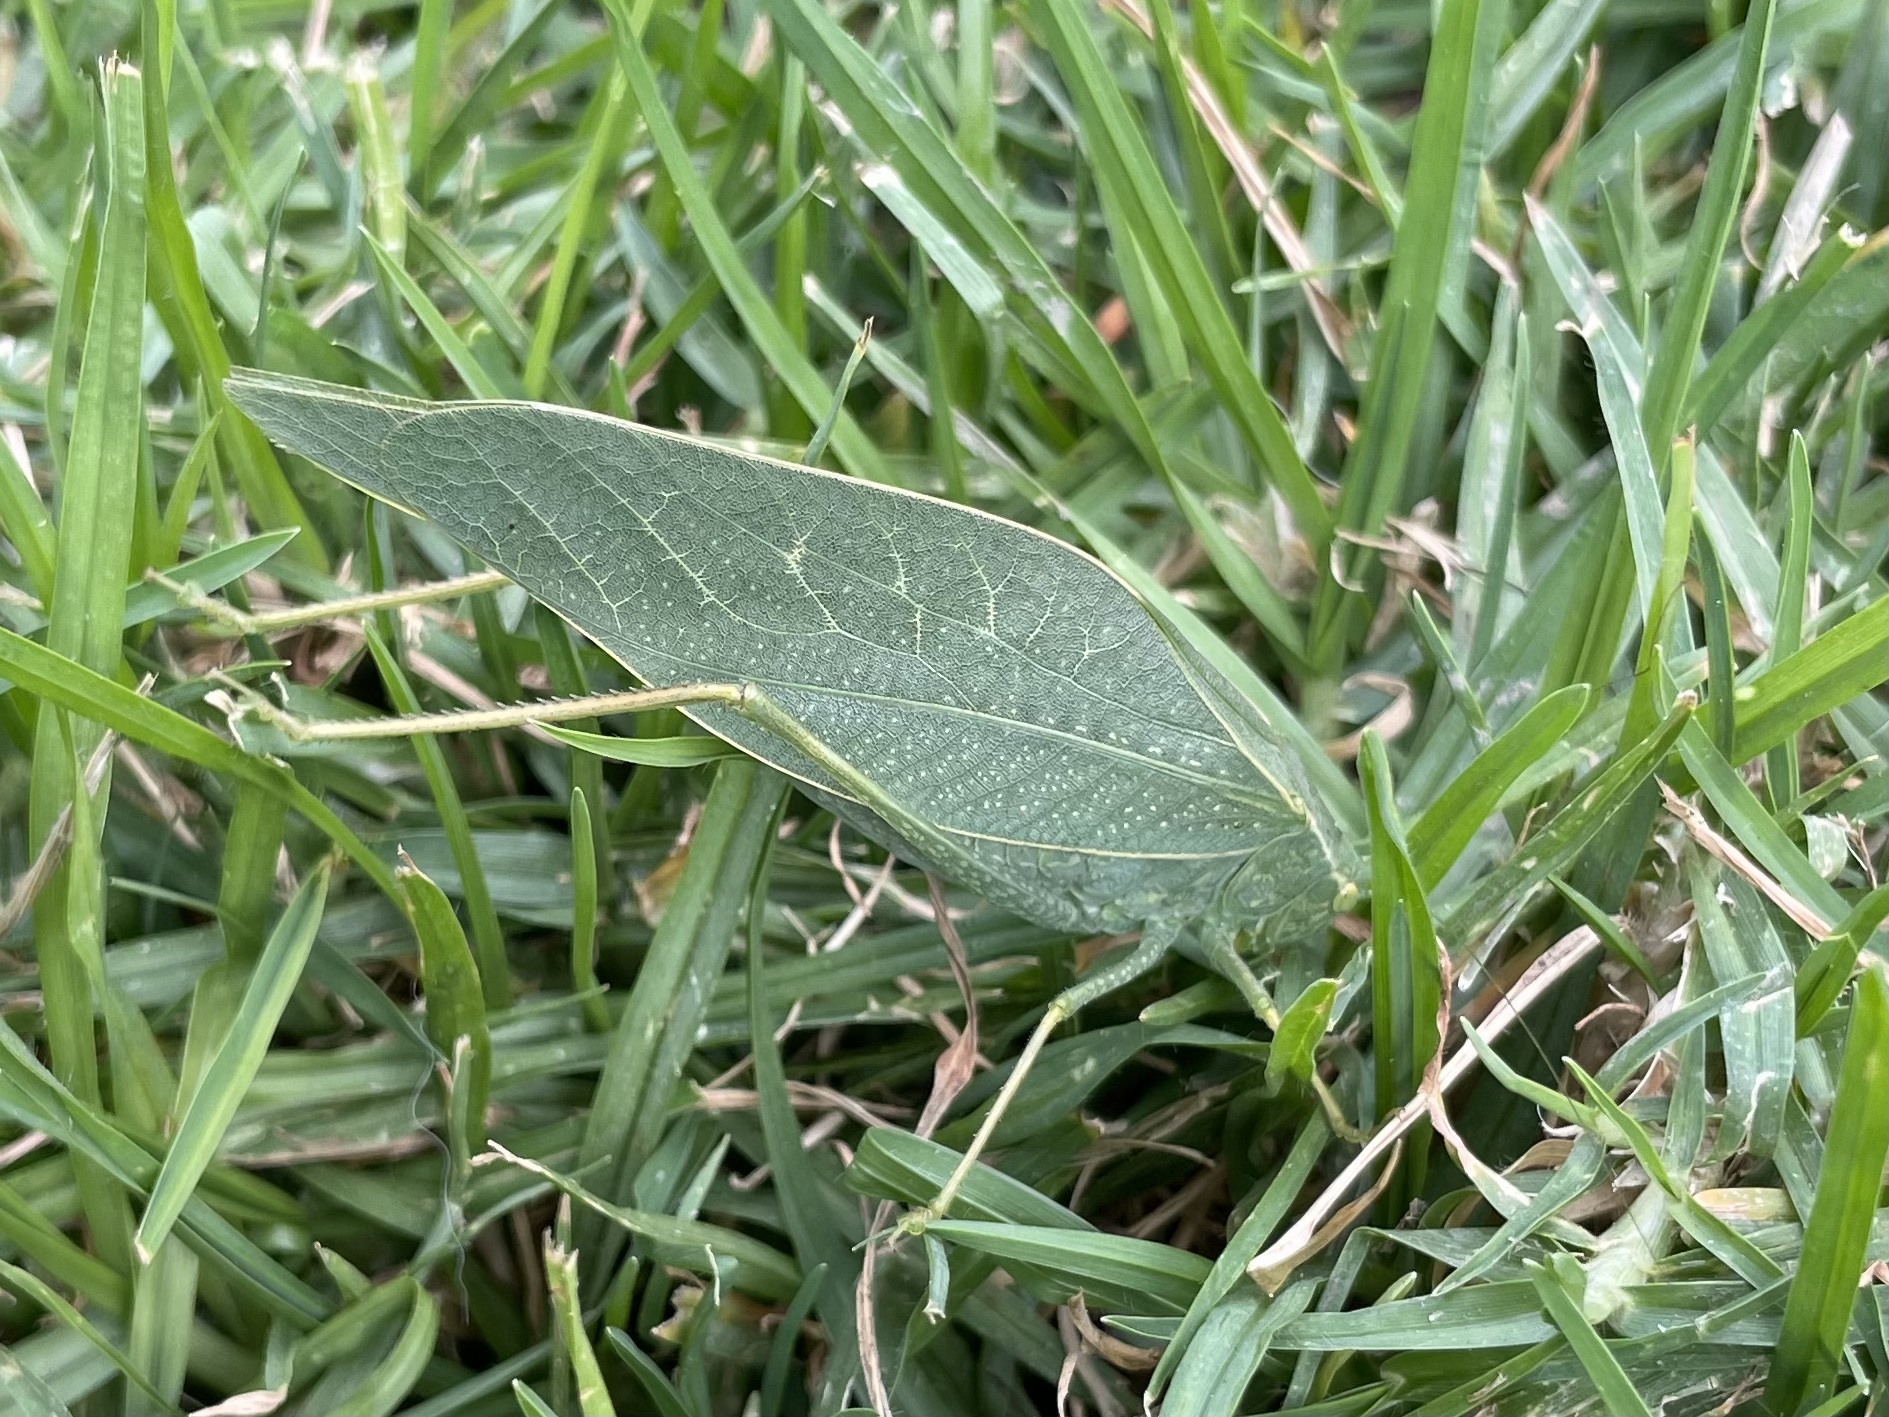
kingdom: Animalia
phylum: Arthropoda
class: Insecta
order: Orthoptera
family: Tettigoniidae
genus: Microcentrum
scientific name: Microcentrum rhombifolium
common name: Broad-winged katydid
